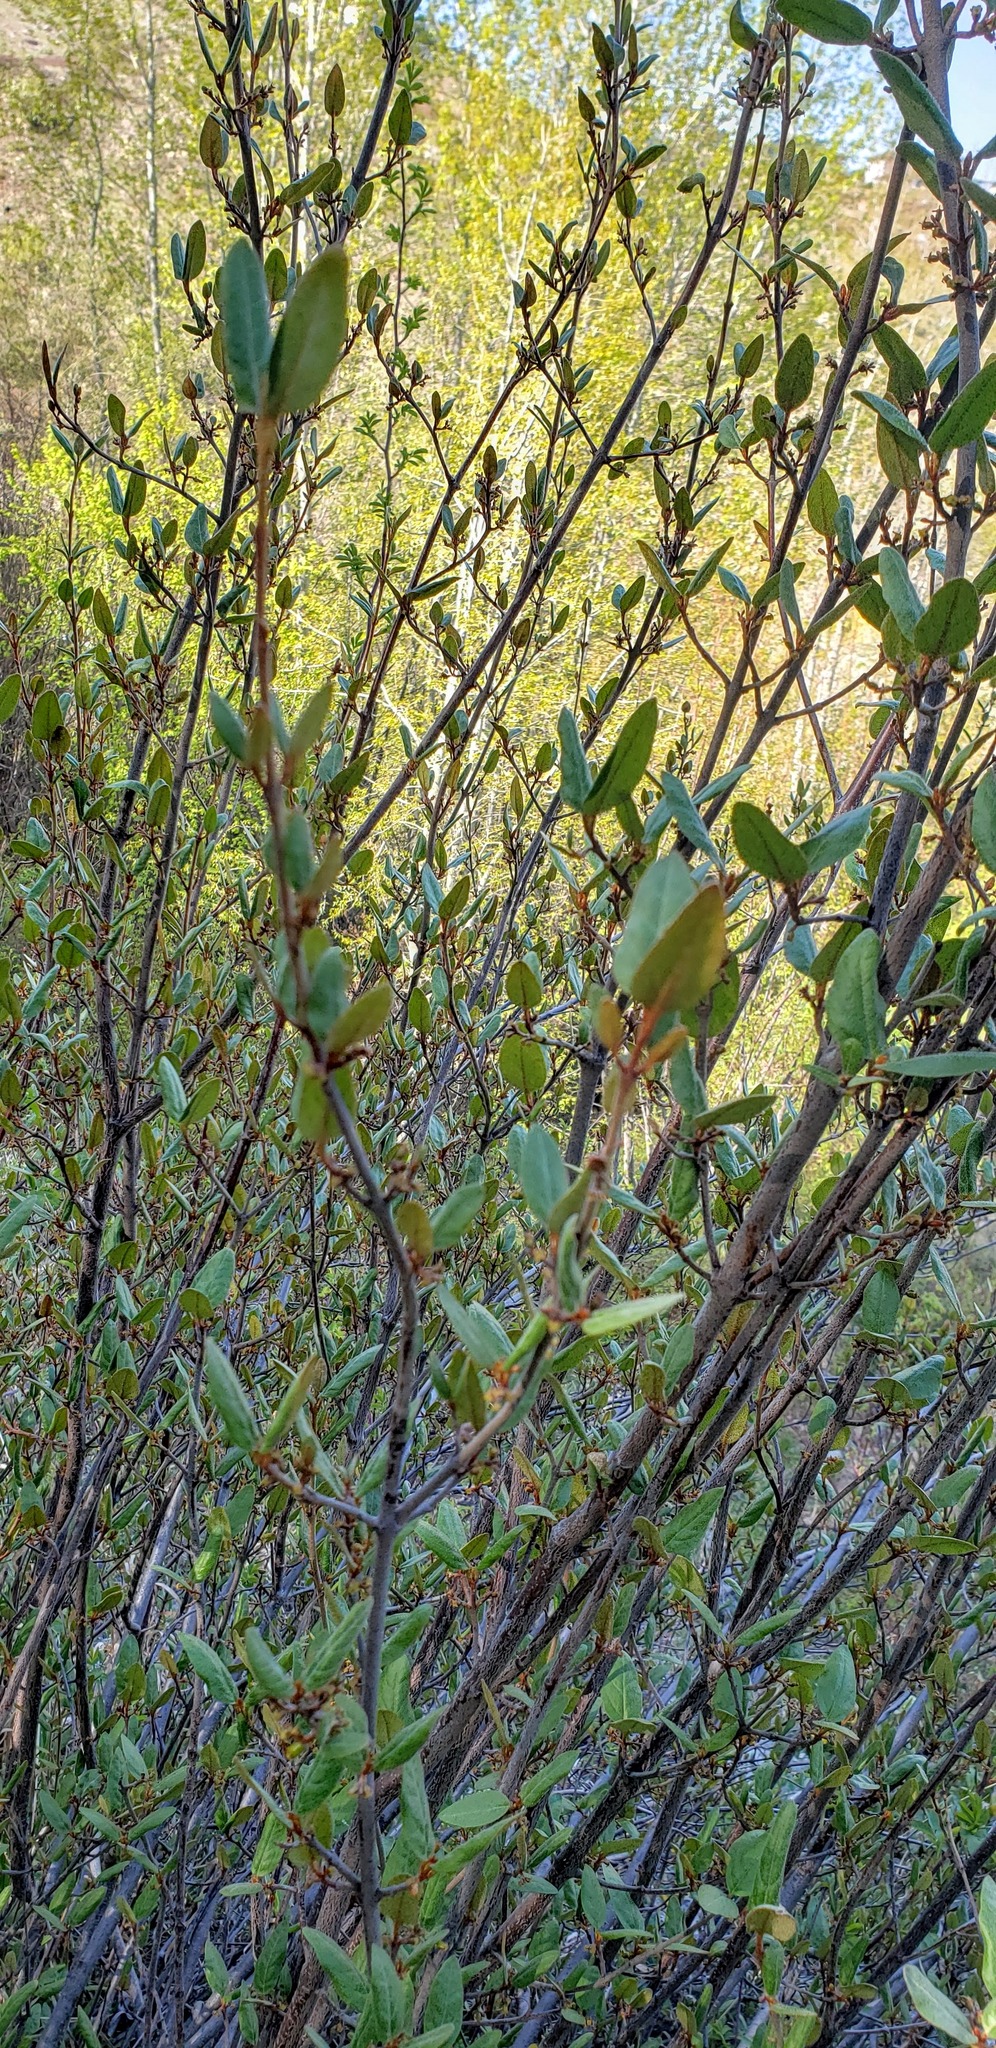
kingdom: Plantae
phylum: Tracheophyta
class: Magnoliopsida
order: Rosales
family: Elaeagnaceae
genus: Shepherdia
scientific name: Shepherdia canadensis
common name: Soapberry
